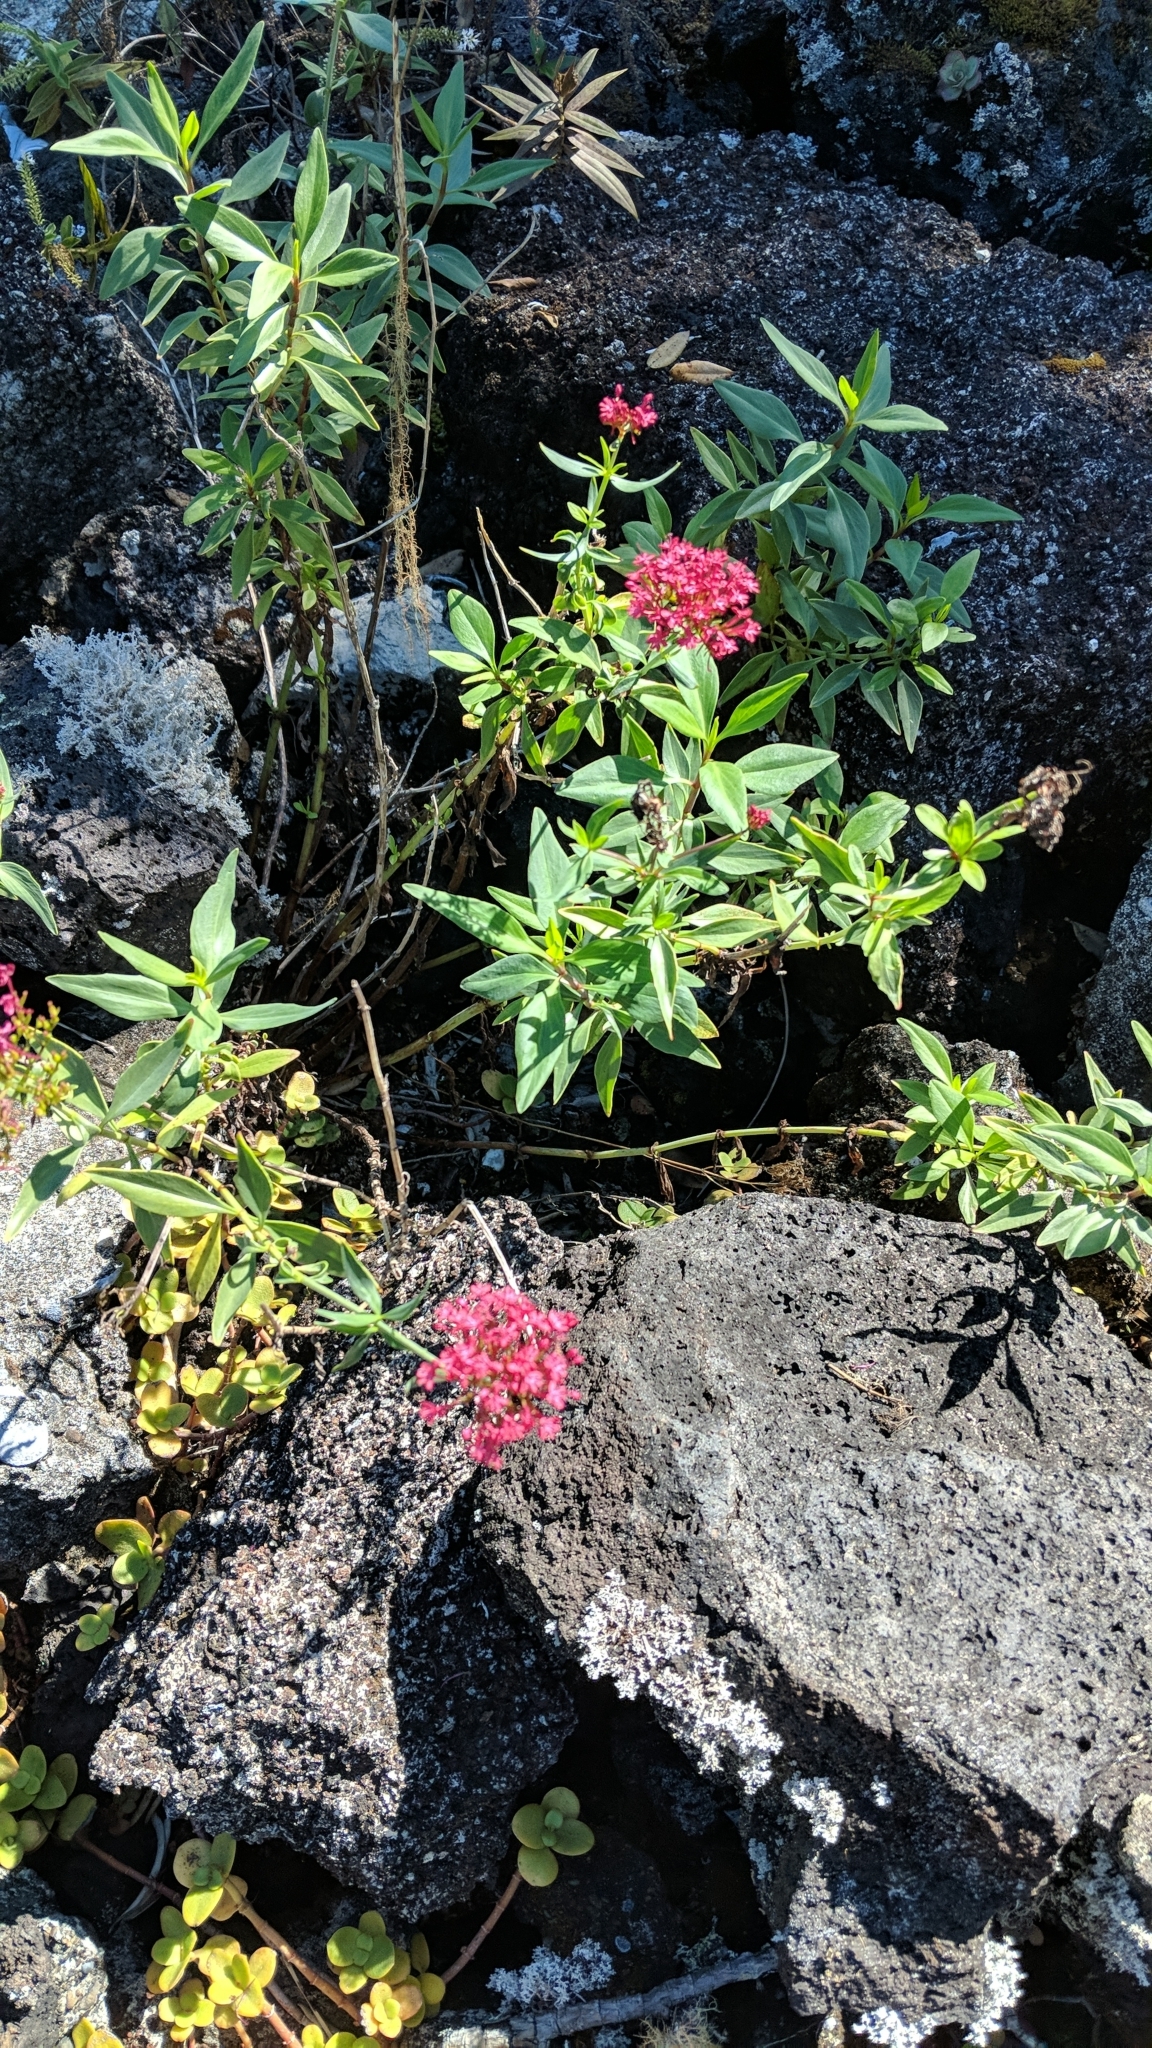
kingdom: Plantae
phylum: Tracheophyta
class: Magnoliopsida
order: Dipsacales
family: Caprifoliaceae
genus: Centranthus
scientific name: Centranthus ruber
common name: Red valerian
